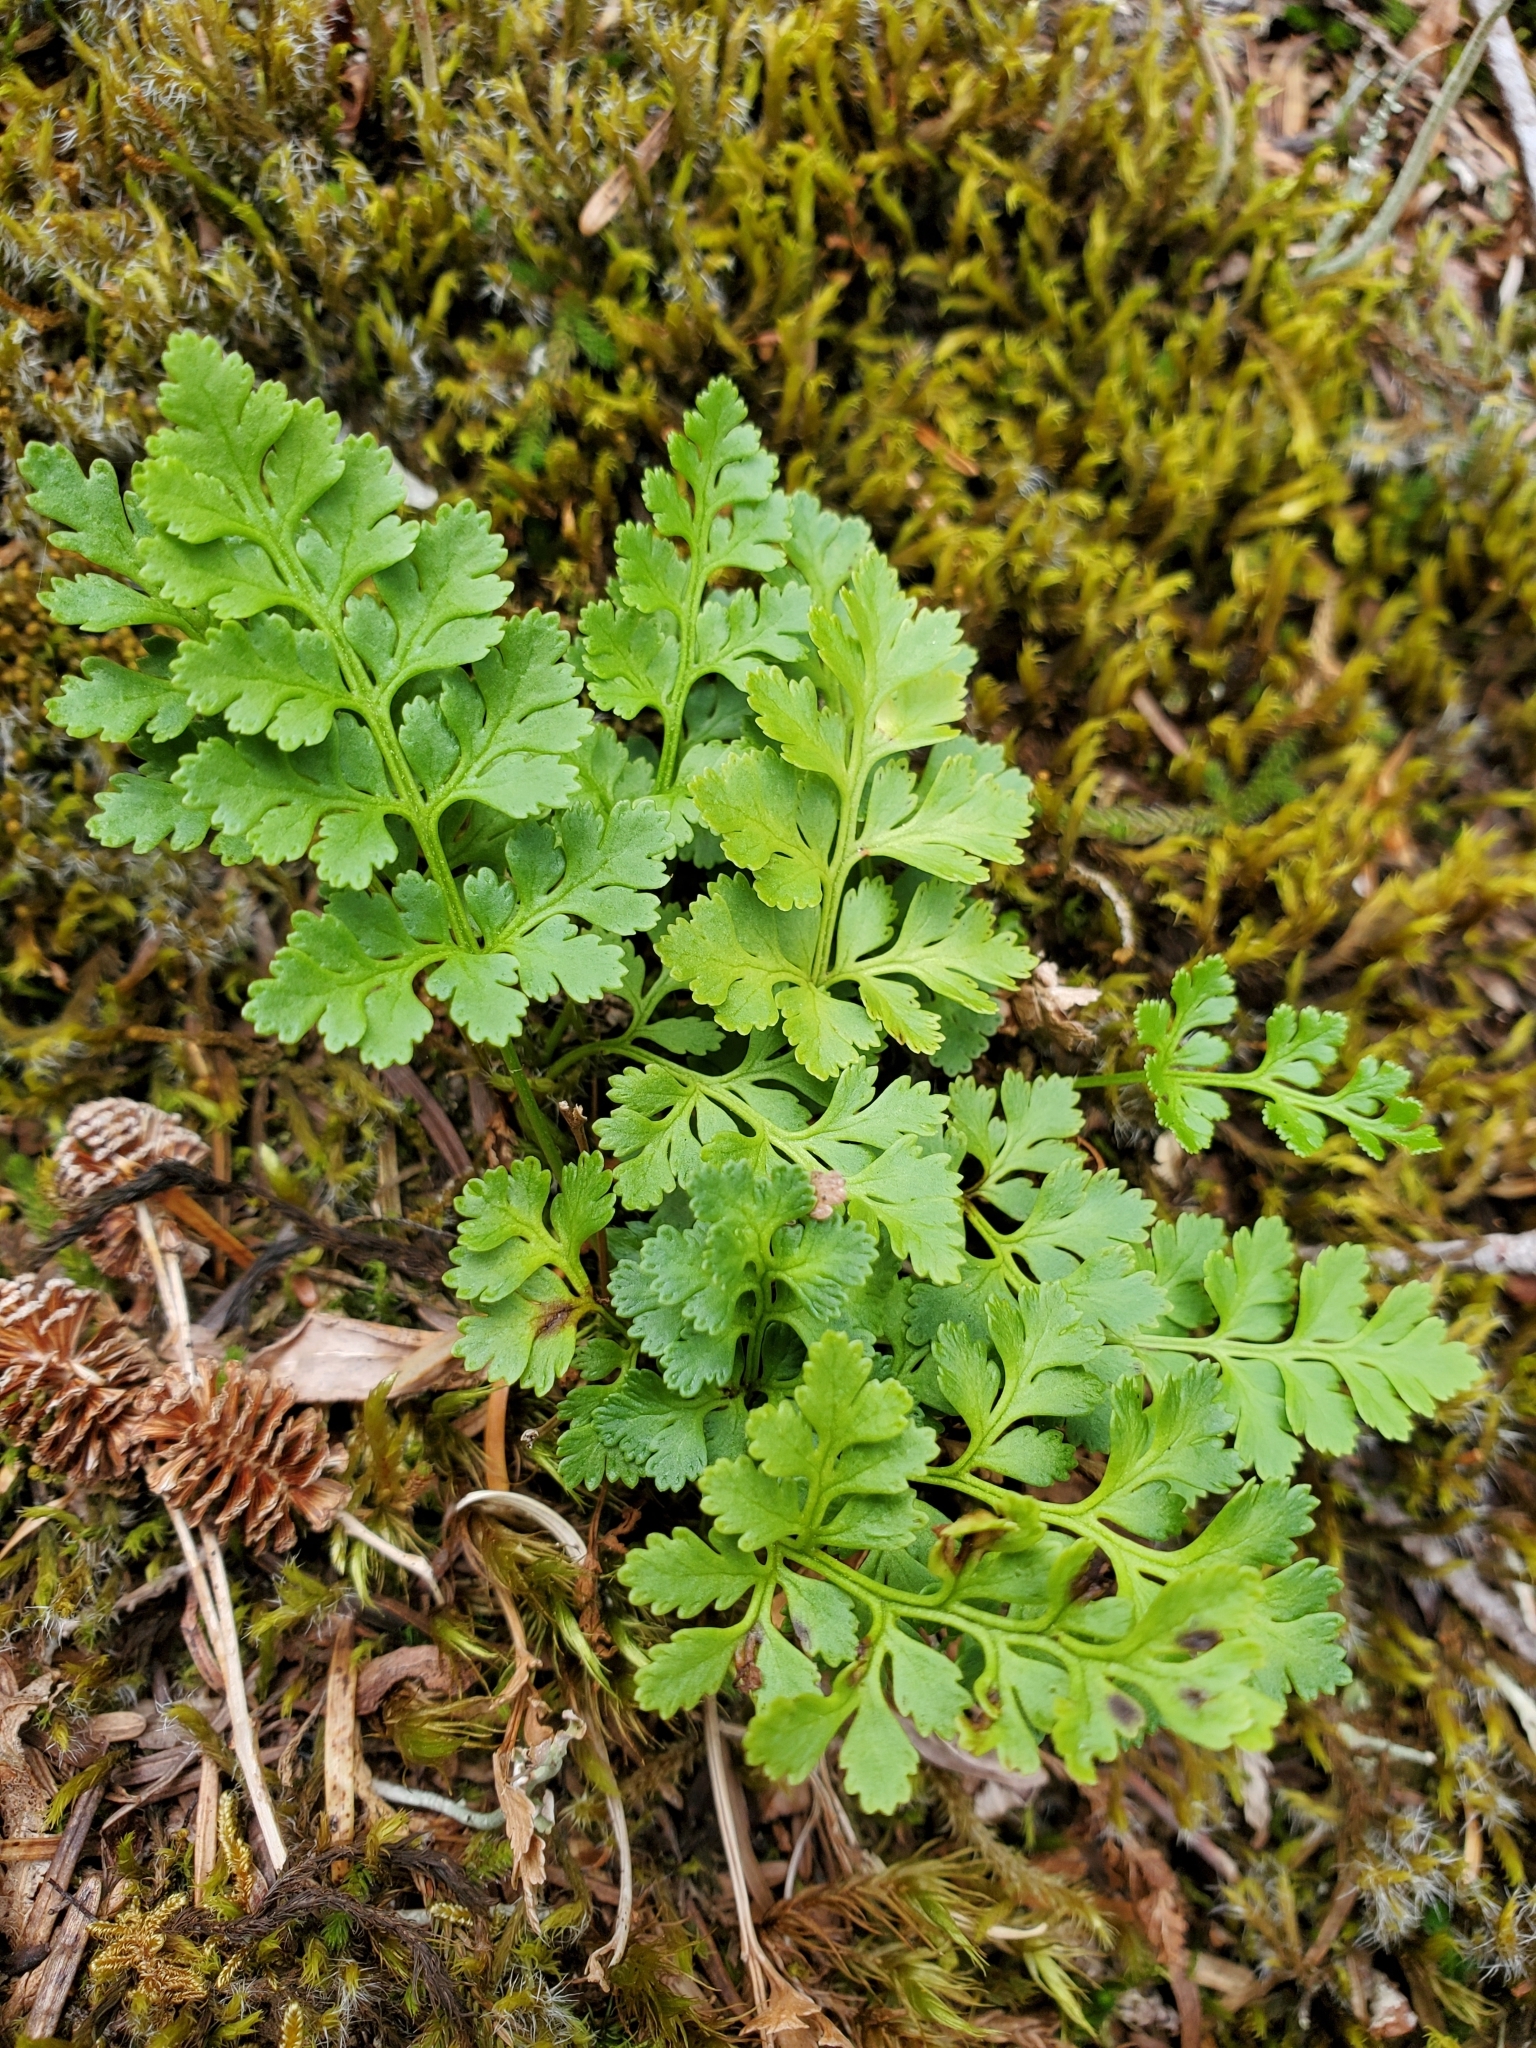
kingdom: Plantae
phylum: Tracheophyta
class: Polypodiopsida
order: Polypodiales
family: Pteridaceae
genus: Cryptogramma
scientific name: Cryptogramma acrostichoides
